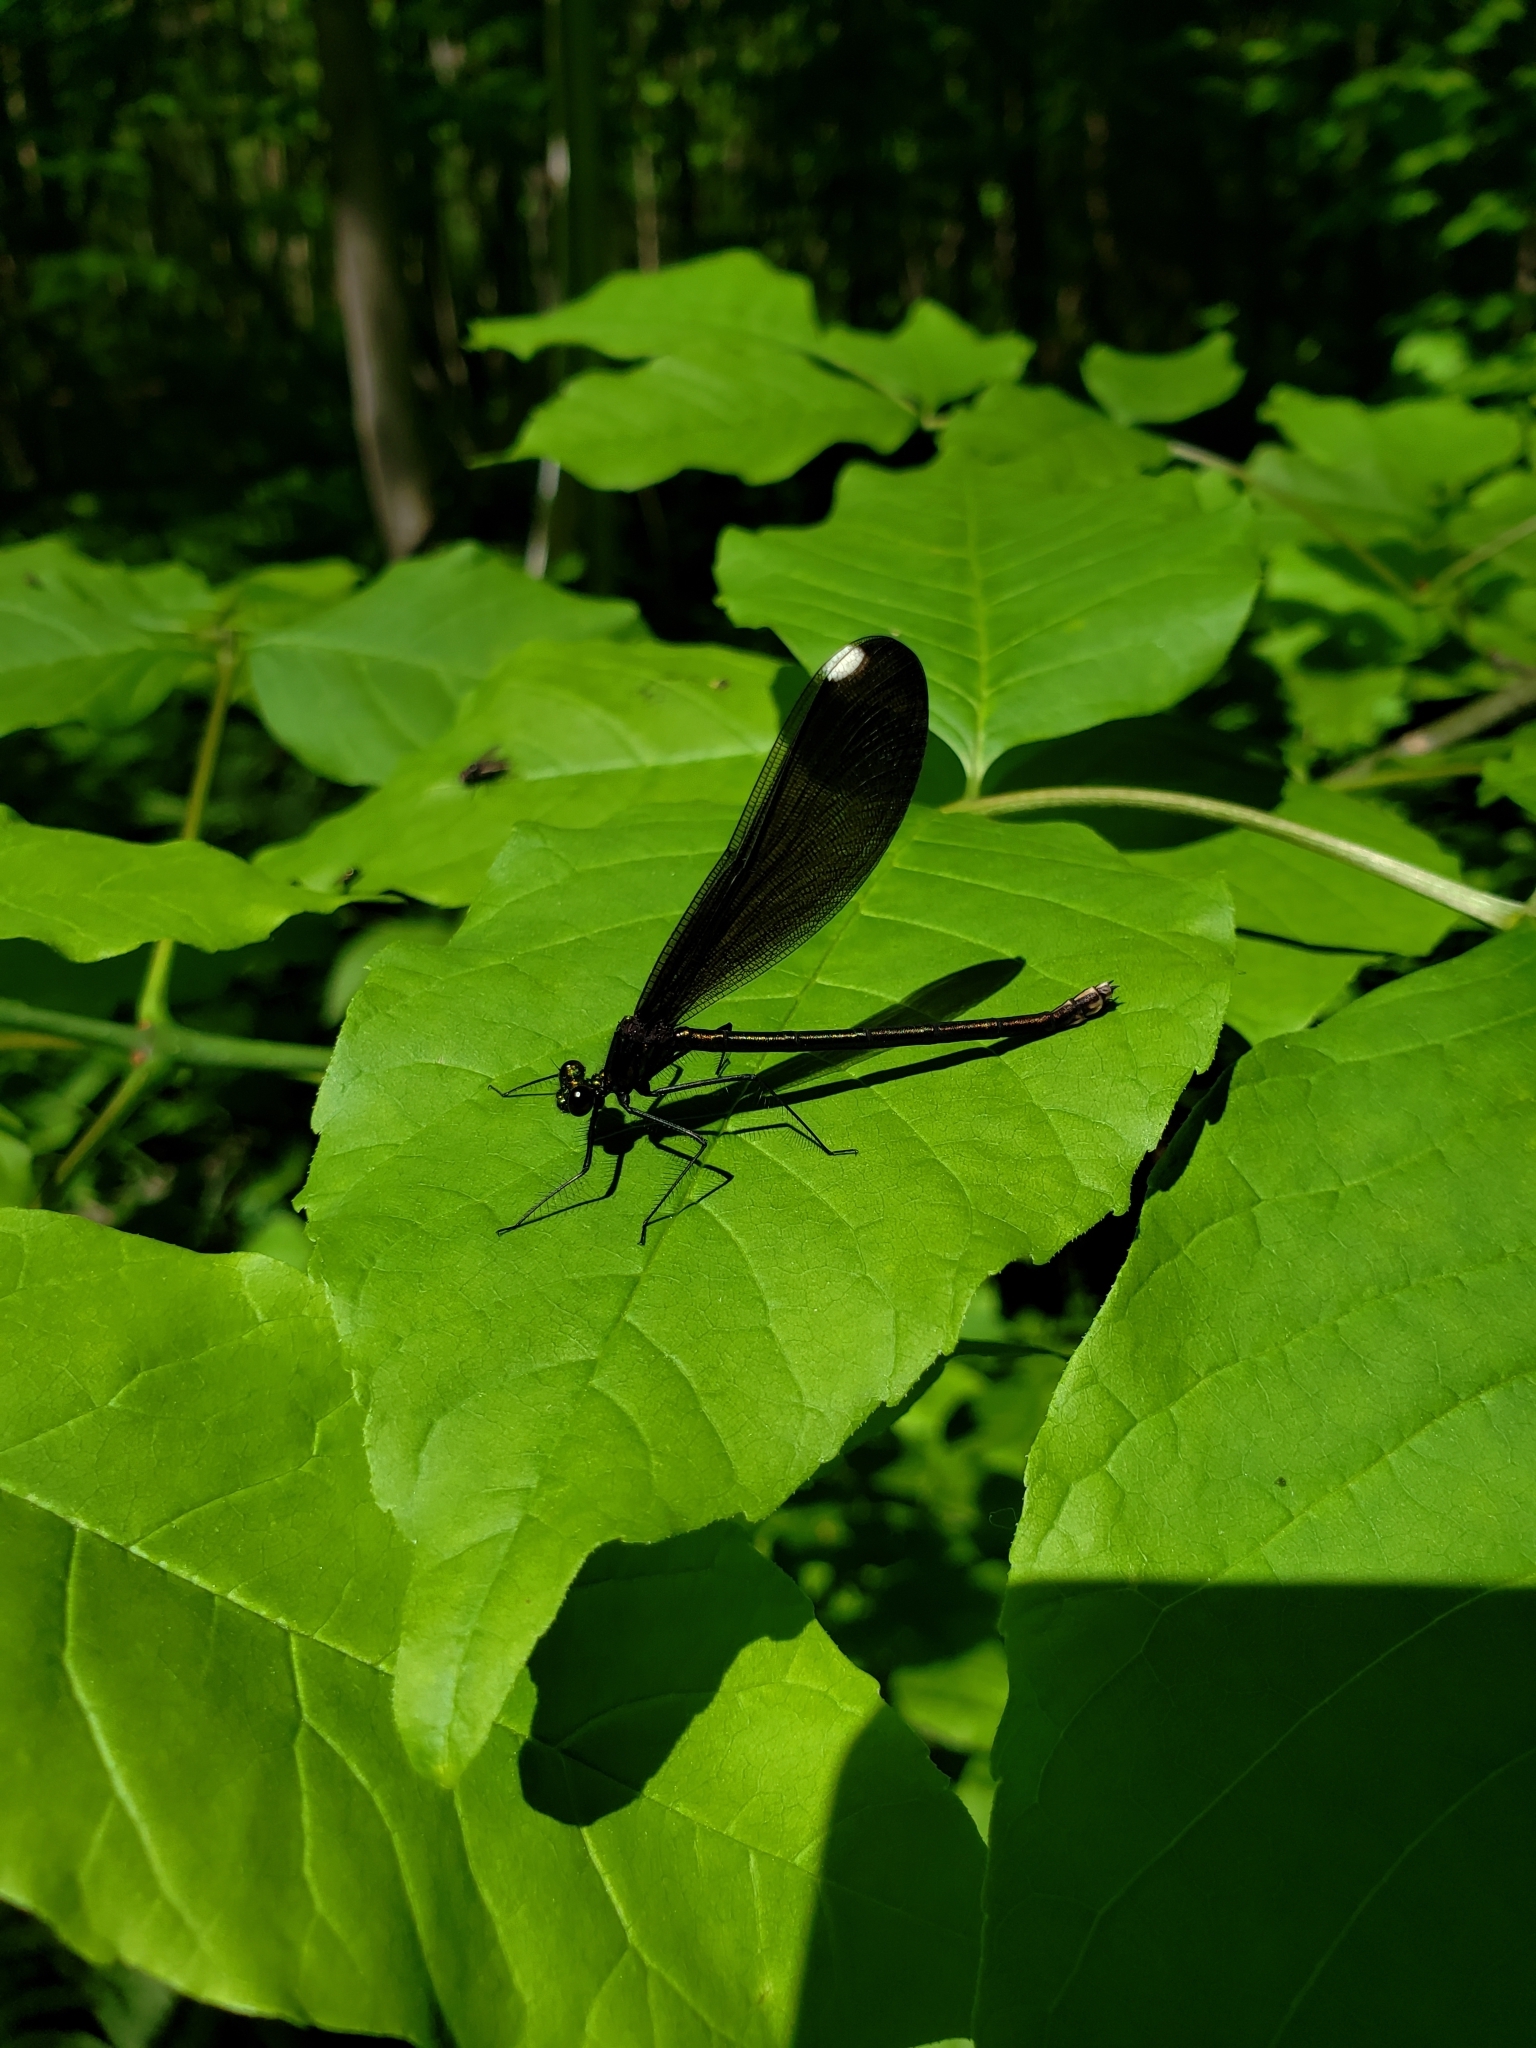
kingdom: Animalia
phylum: Arthropoda
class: Insecta
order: Odonata
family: Calopterygidae
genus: Calopteryx
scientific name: Calopteryx maculata
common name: Ebony jewelwing
